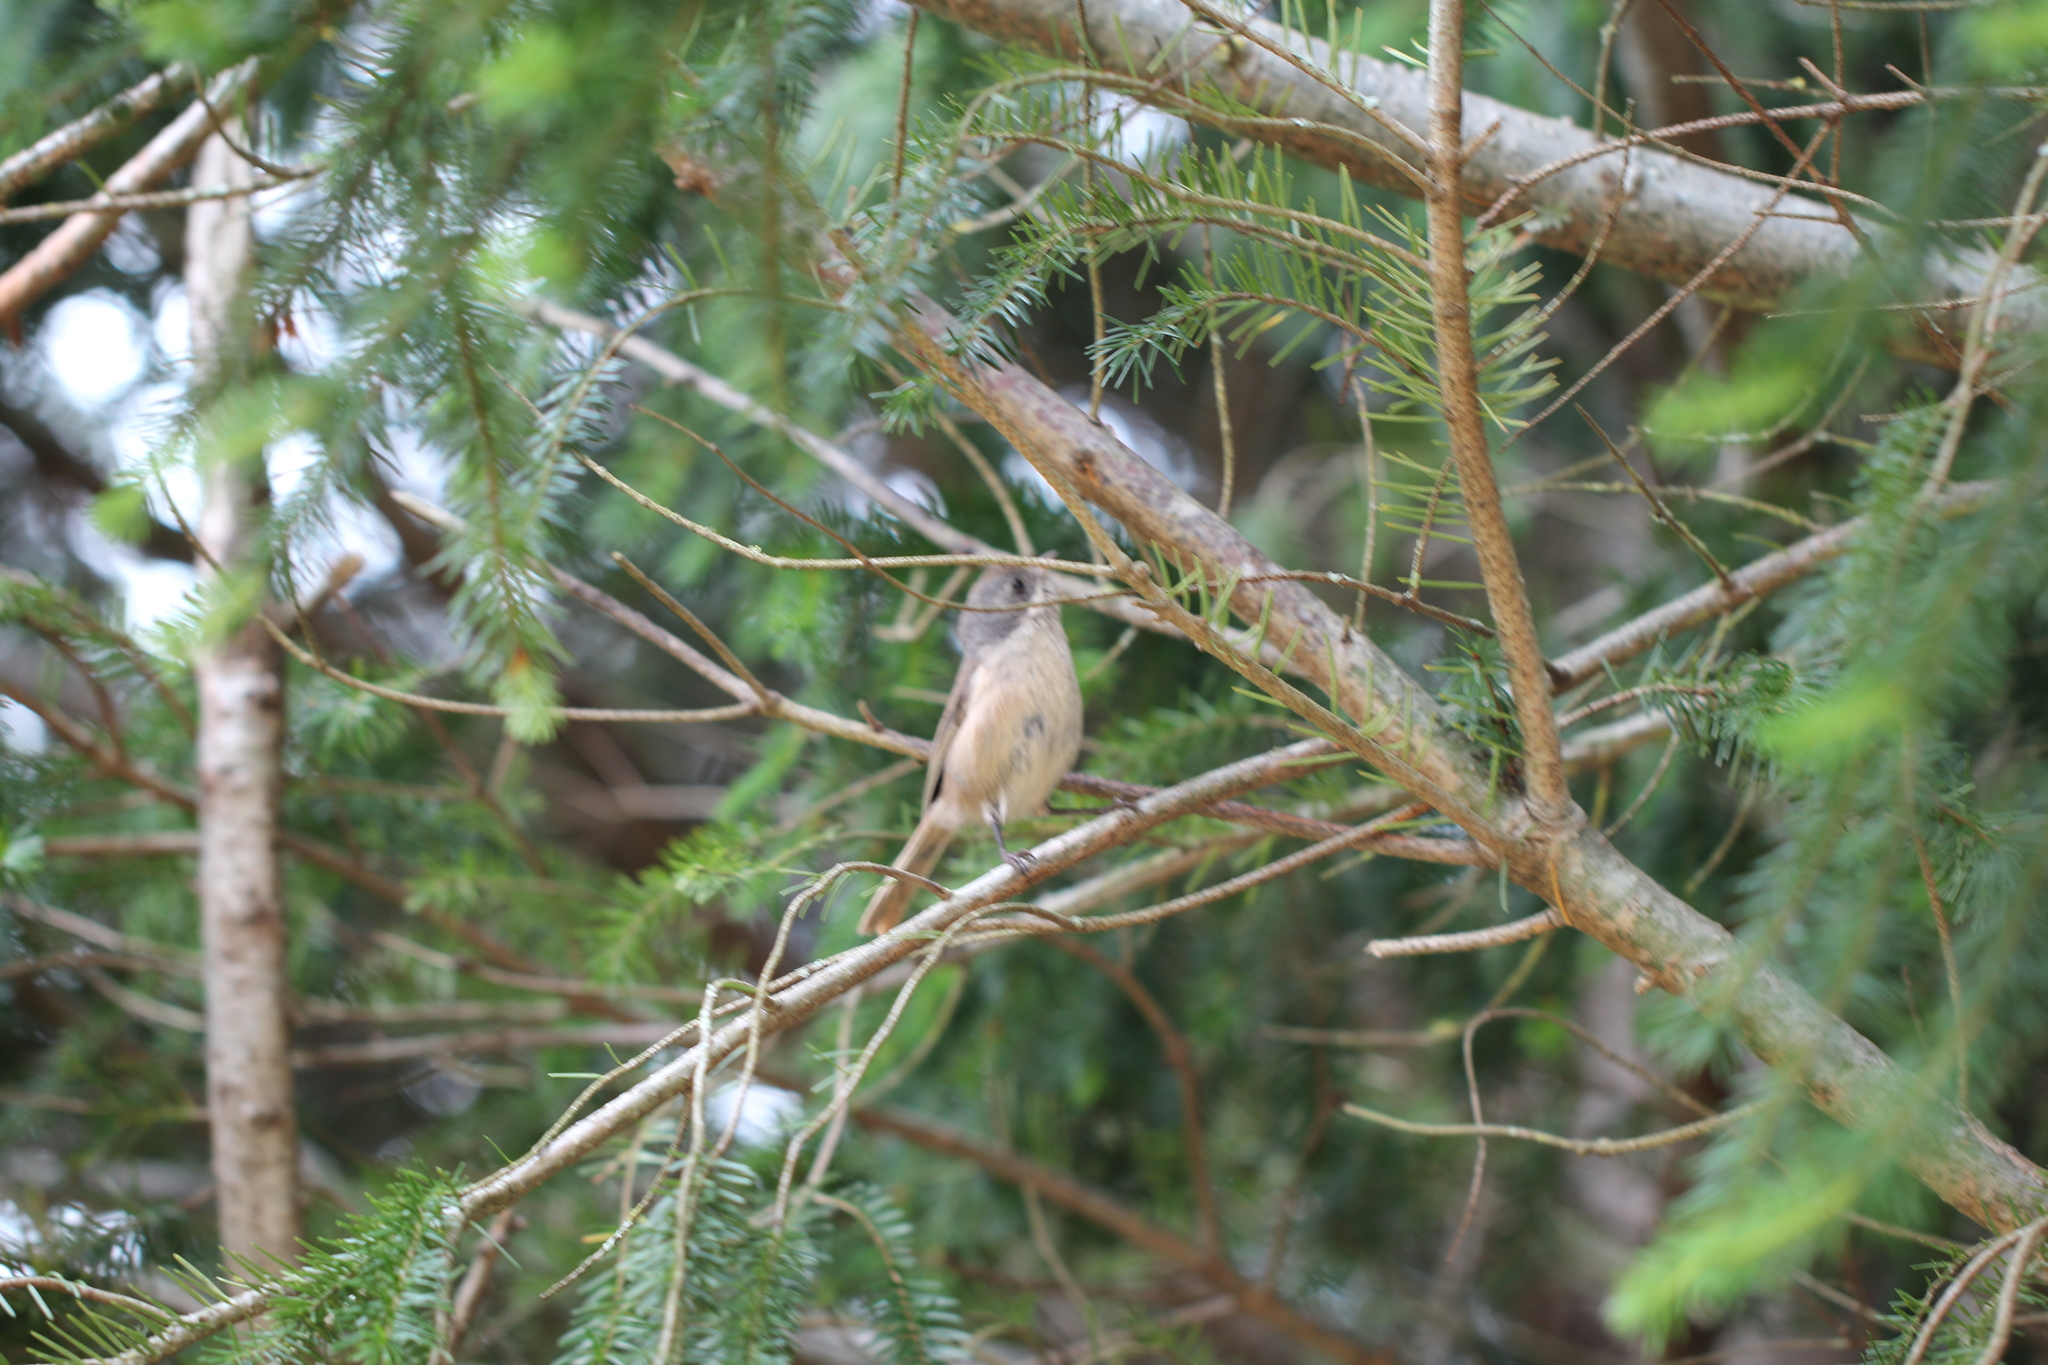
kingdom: Animalia
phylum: Chordata
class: Aves
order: Passeriformes
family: Acanthizidae
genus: Finschia
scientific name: Finschia novaeseelandiae
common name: Pipipi
